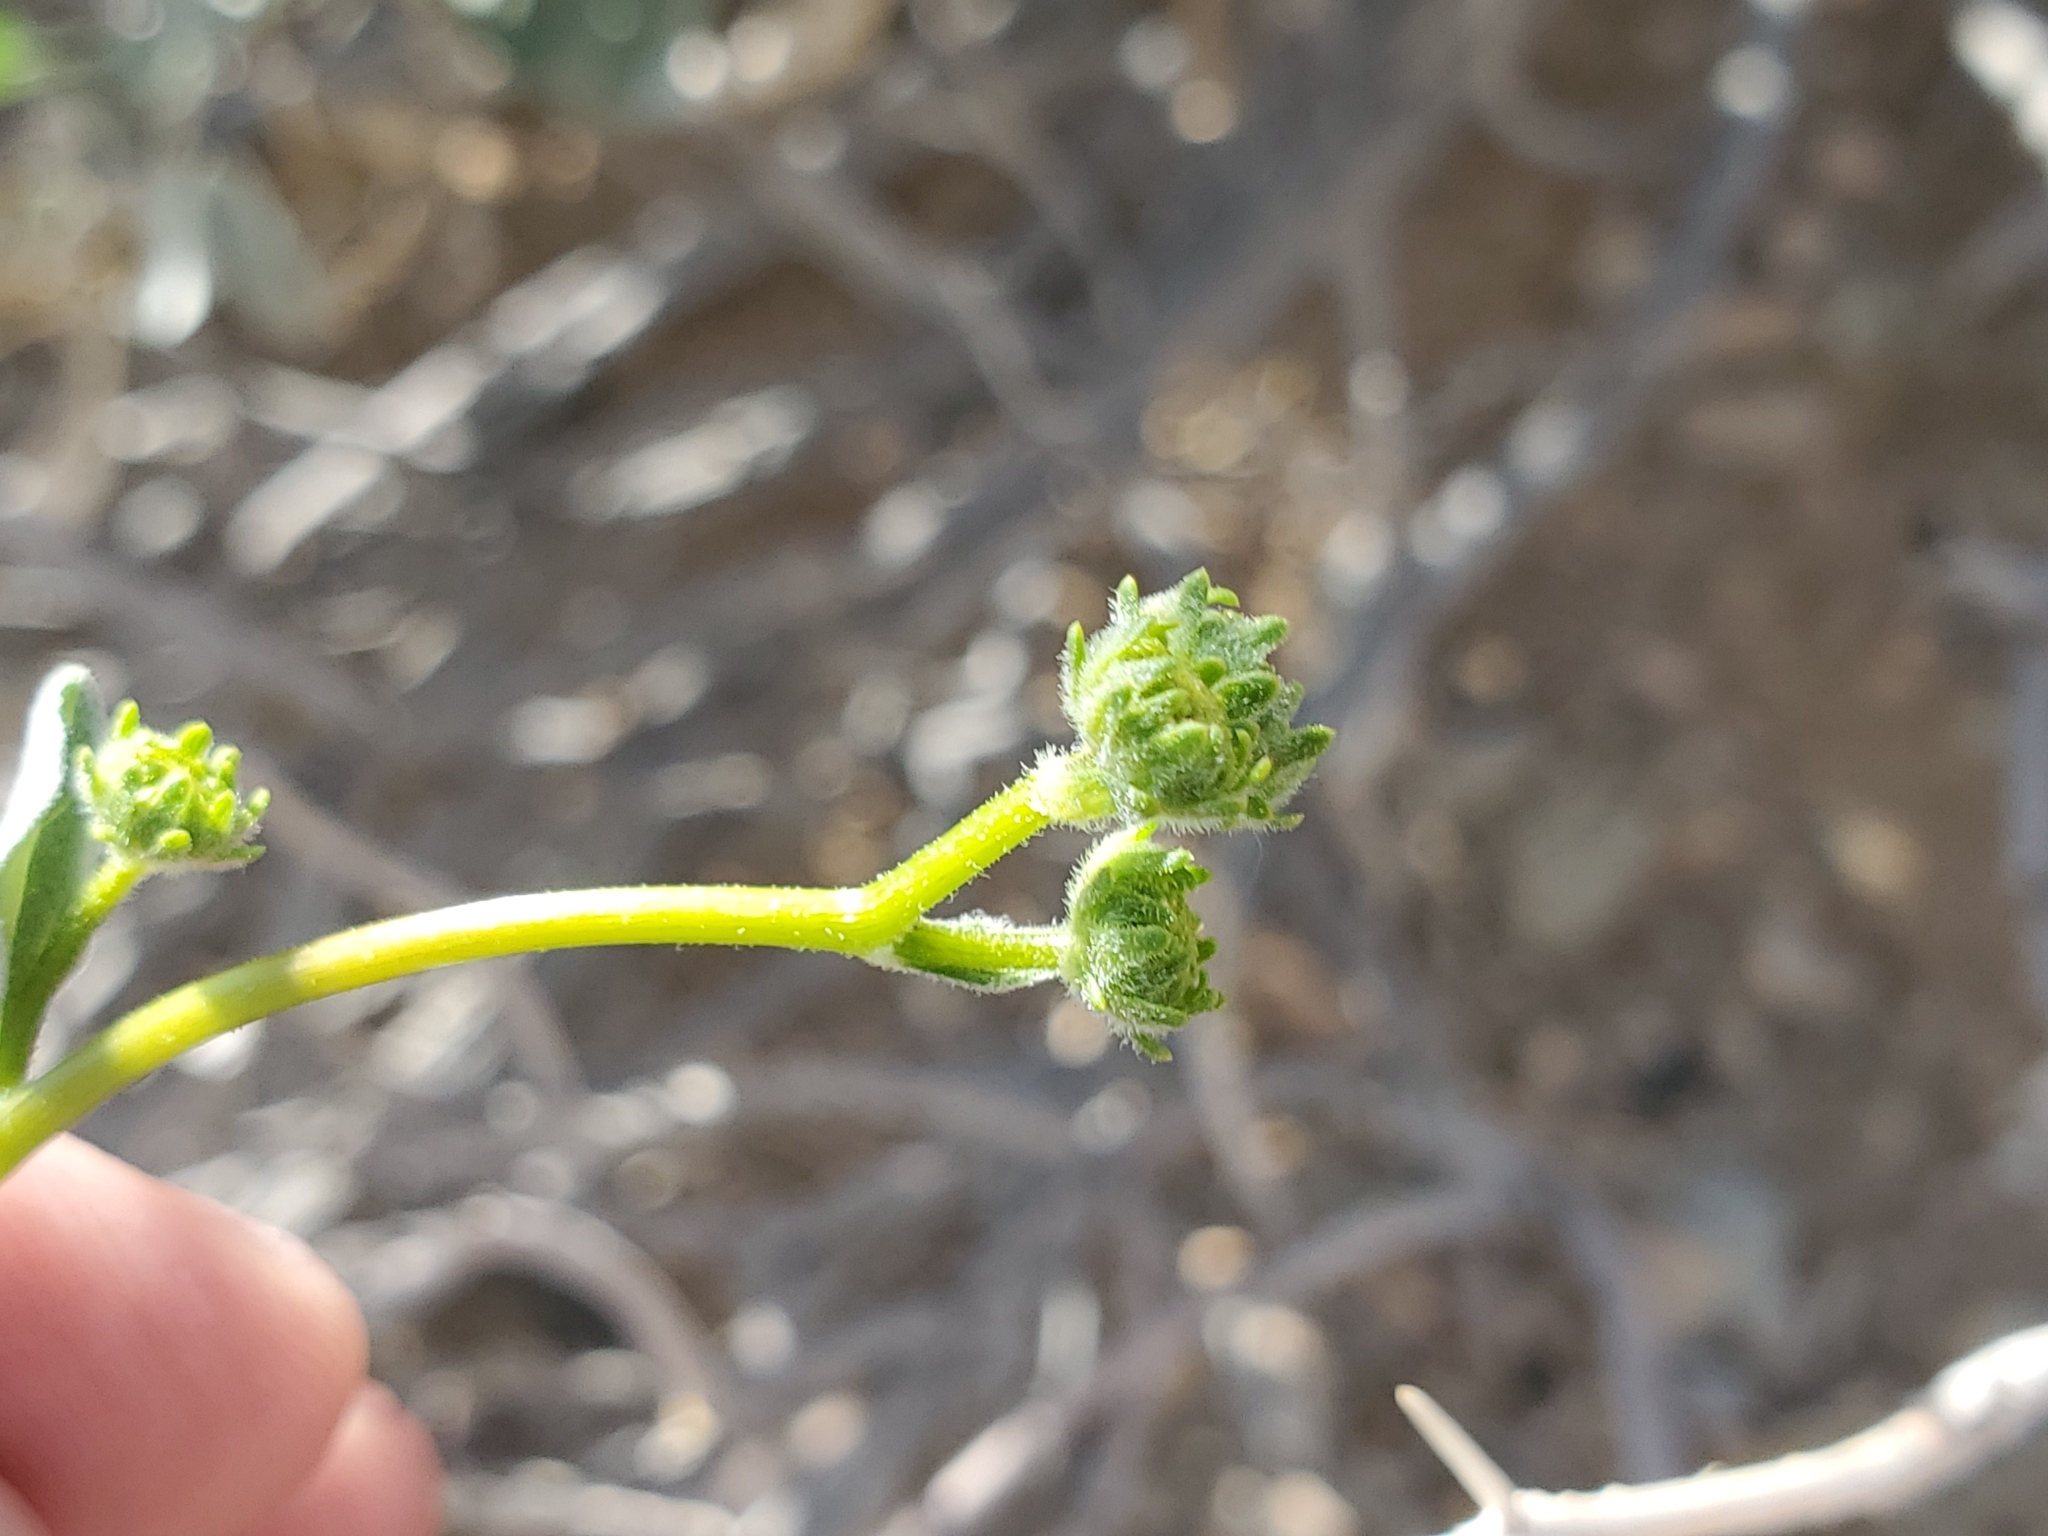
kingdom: Plantae
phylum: Tracheophyta
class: Magnoliopsida
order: Asterales
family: Asteraceae
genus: Encelia
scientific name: Encelia farinosa
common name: Brittlebush
